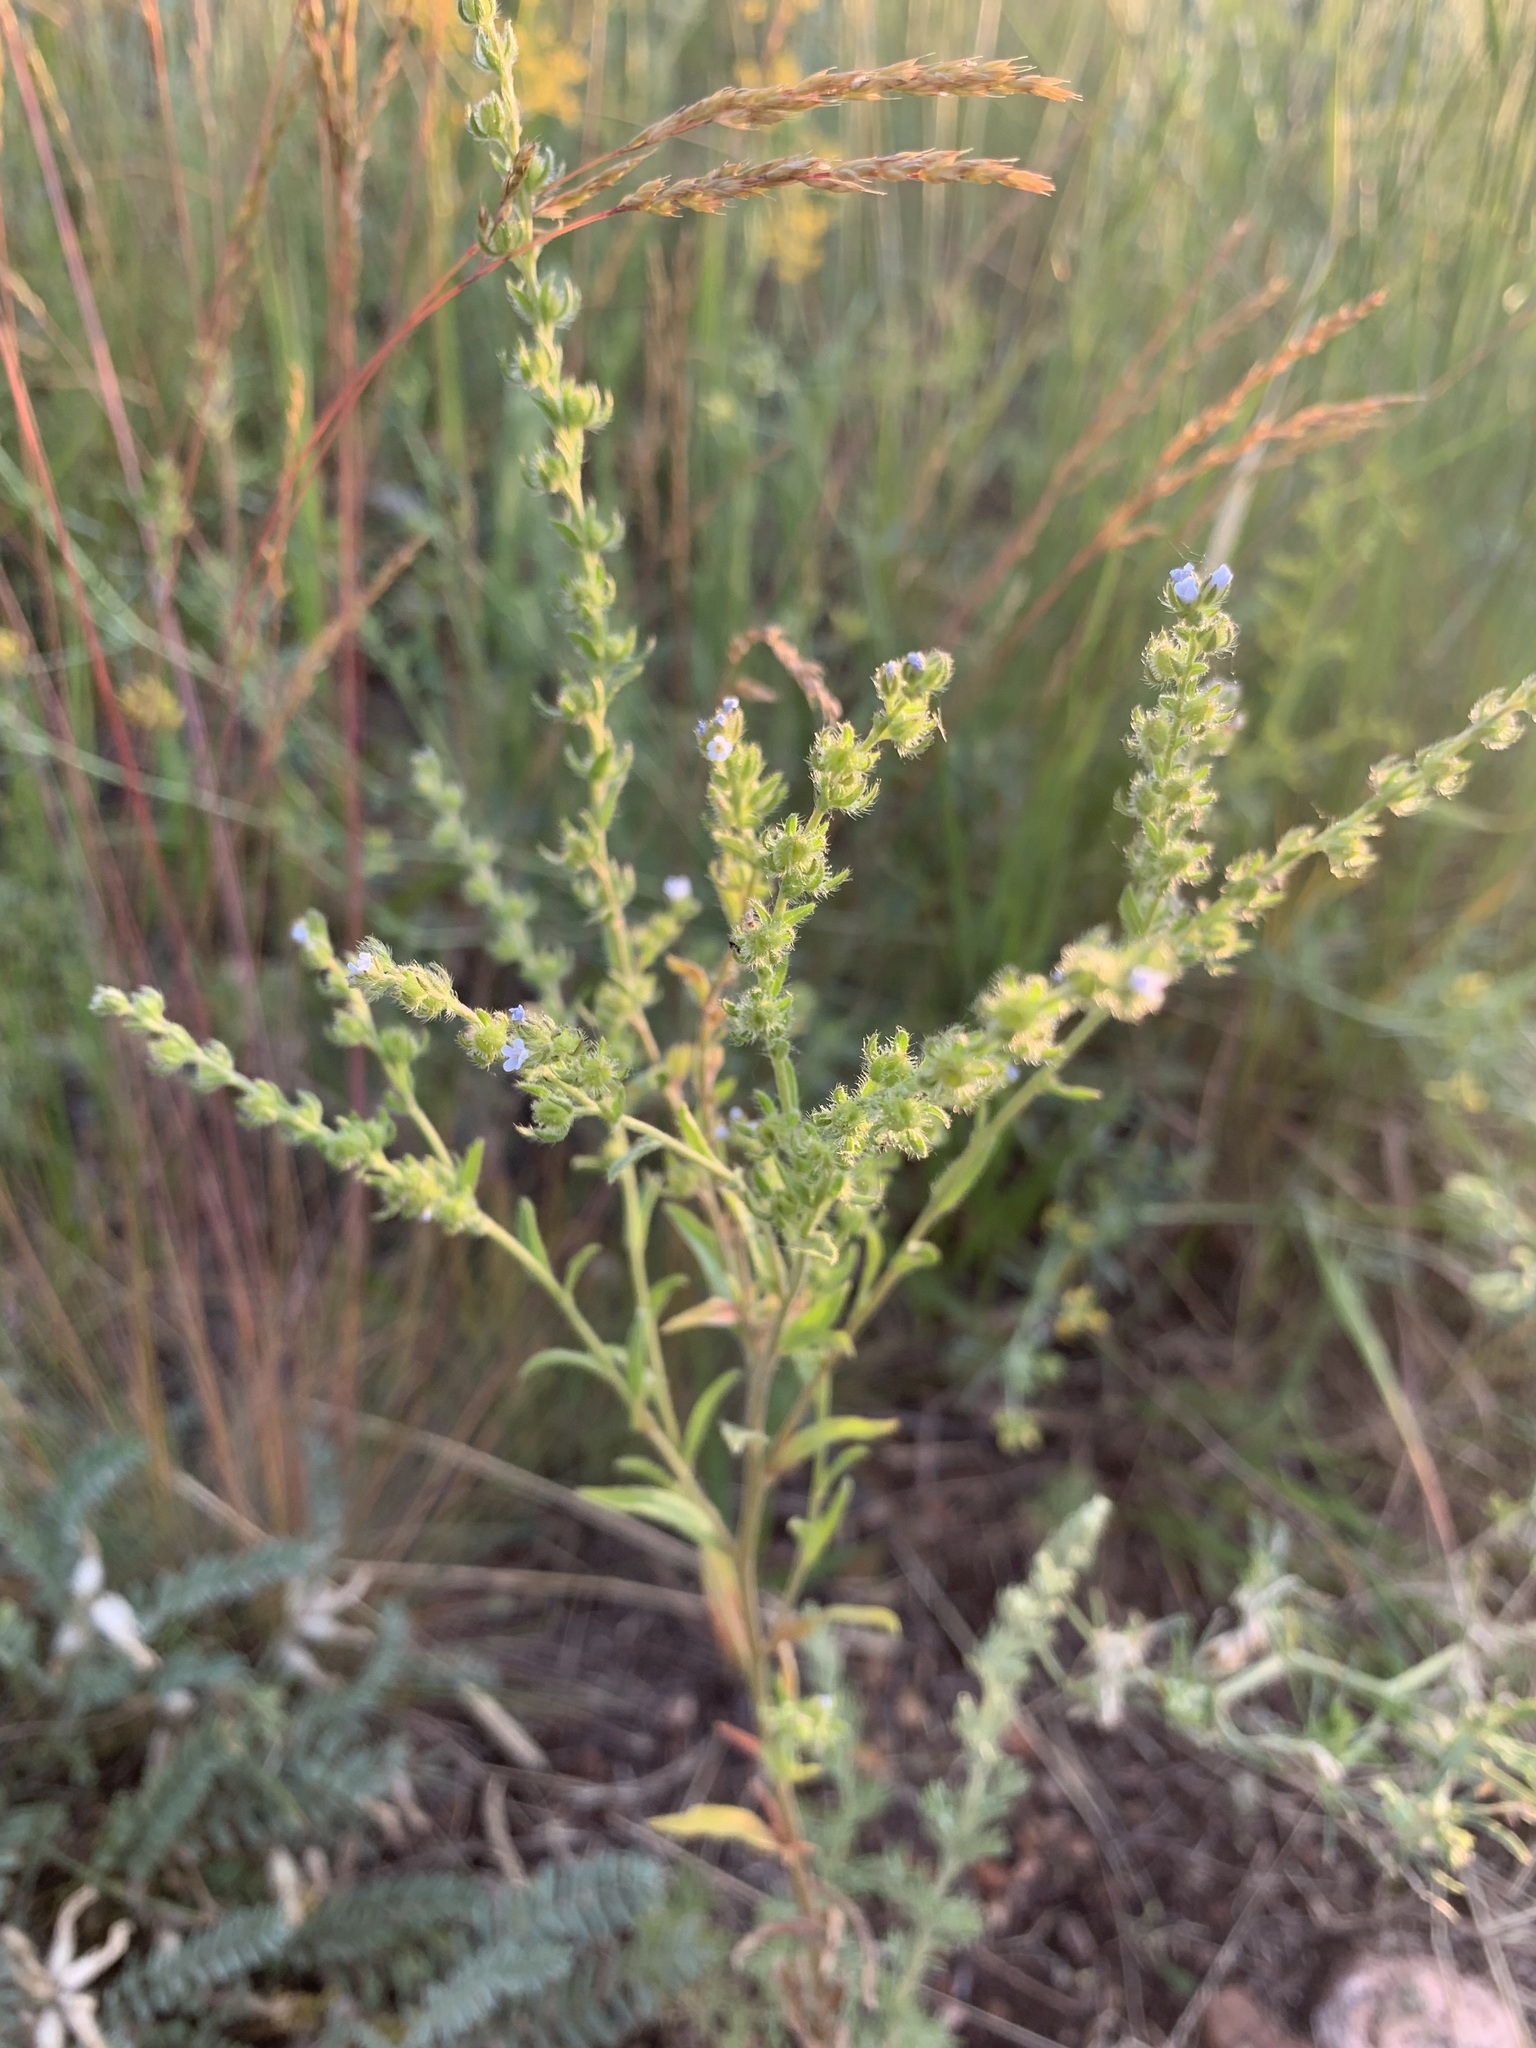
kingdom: Plantae
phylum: Tracheophyta
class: Magnoliopsida
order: Boraginales
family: Boraginaceae
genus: Lappula
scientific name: Lappula squarrosa
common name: European stickseed
